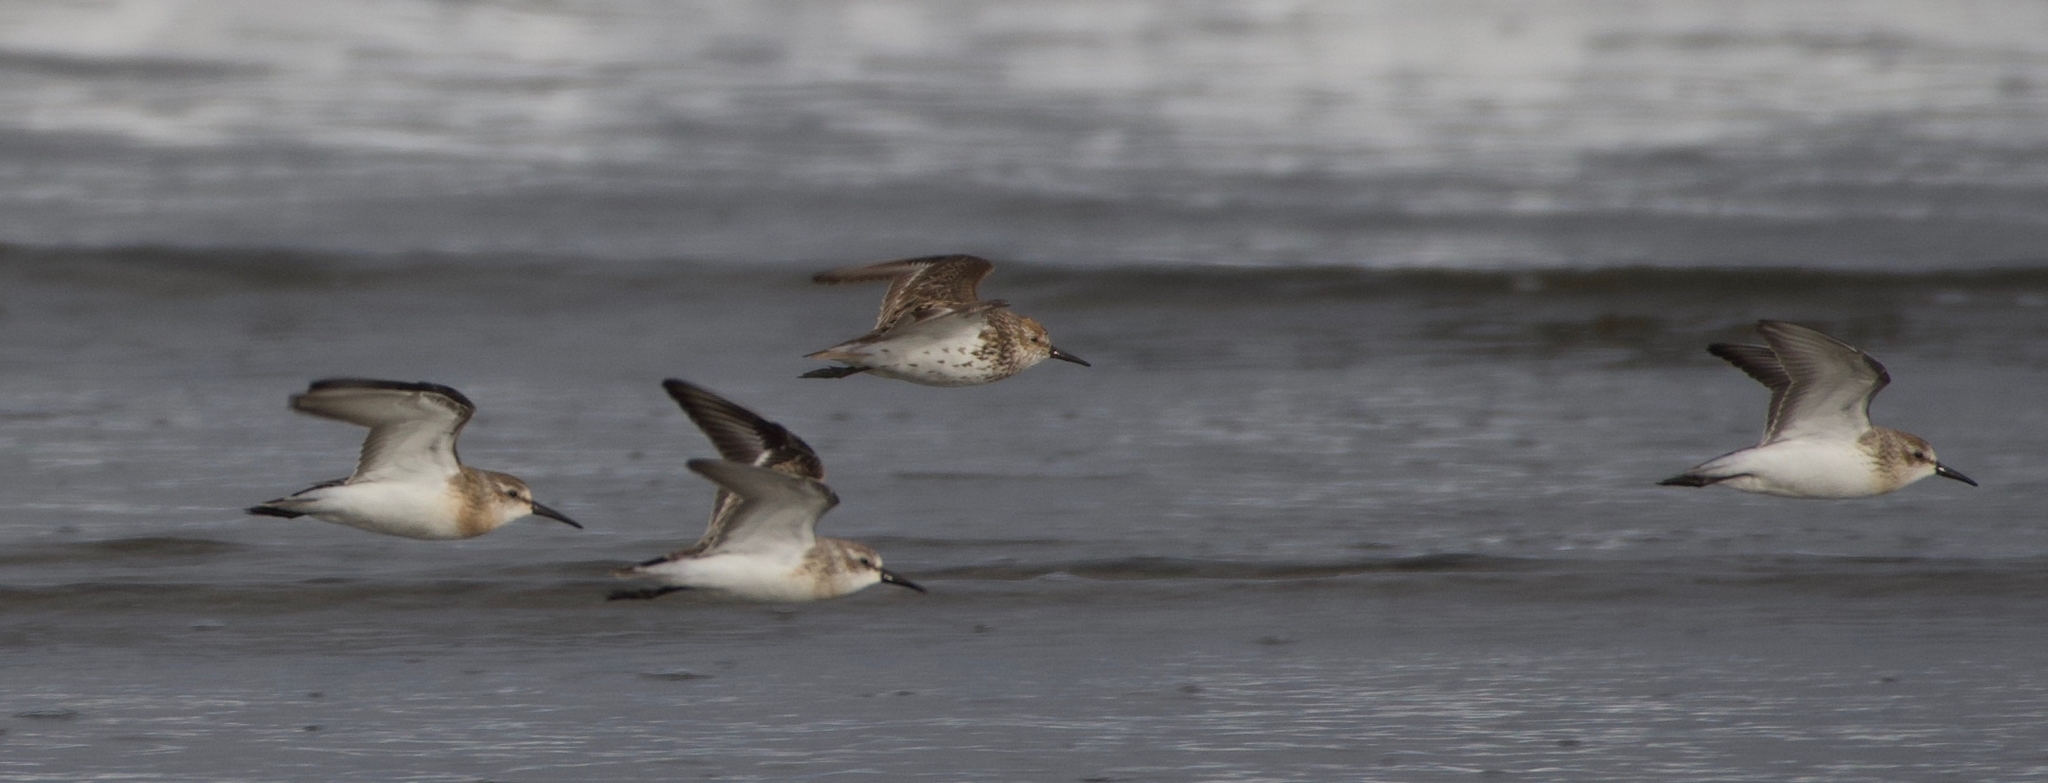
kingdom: Animalia
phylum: Chordata
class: Aves
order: Charadriiformes
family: Scolopacidae
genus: Calidris
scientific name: Calidris mauri
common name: Western sandpiper
